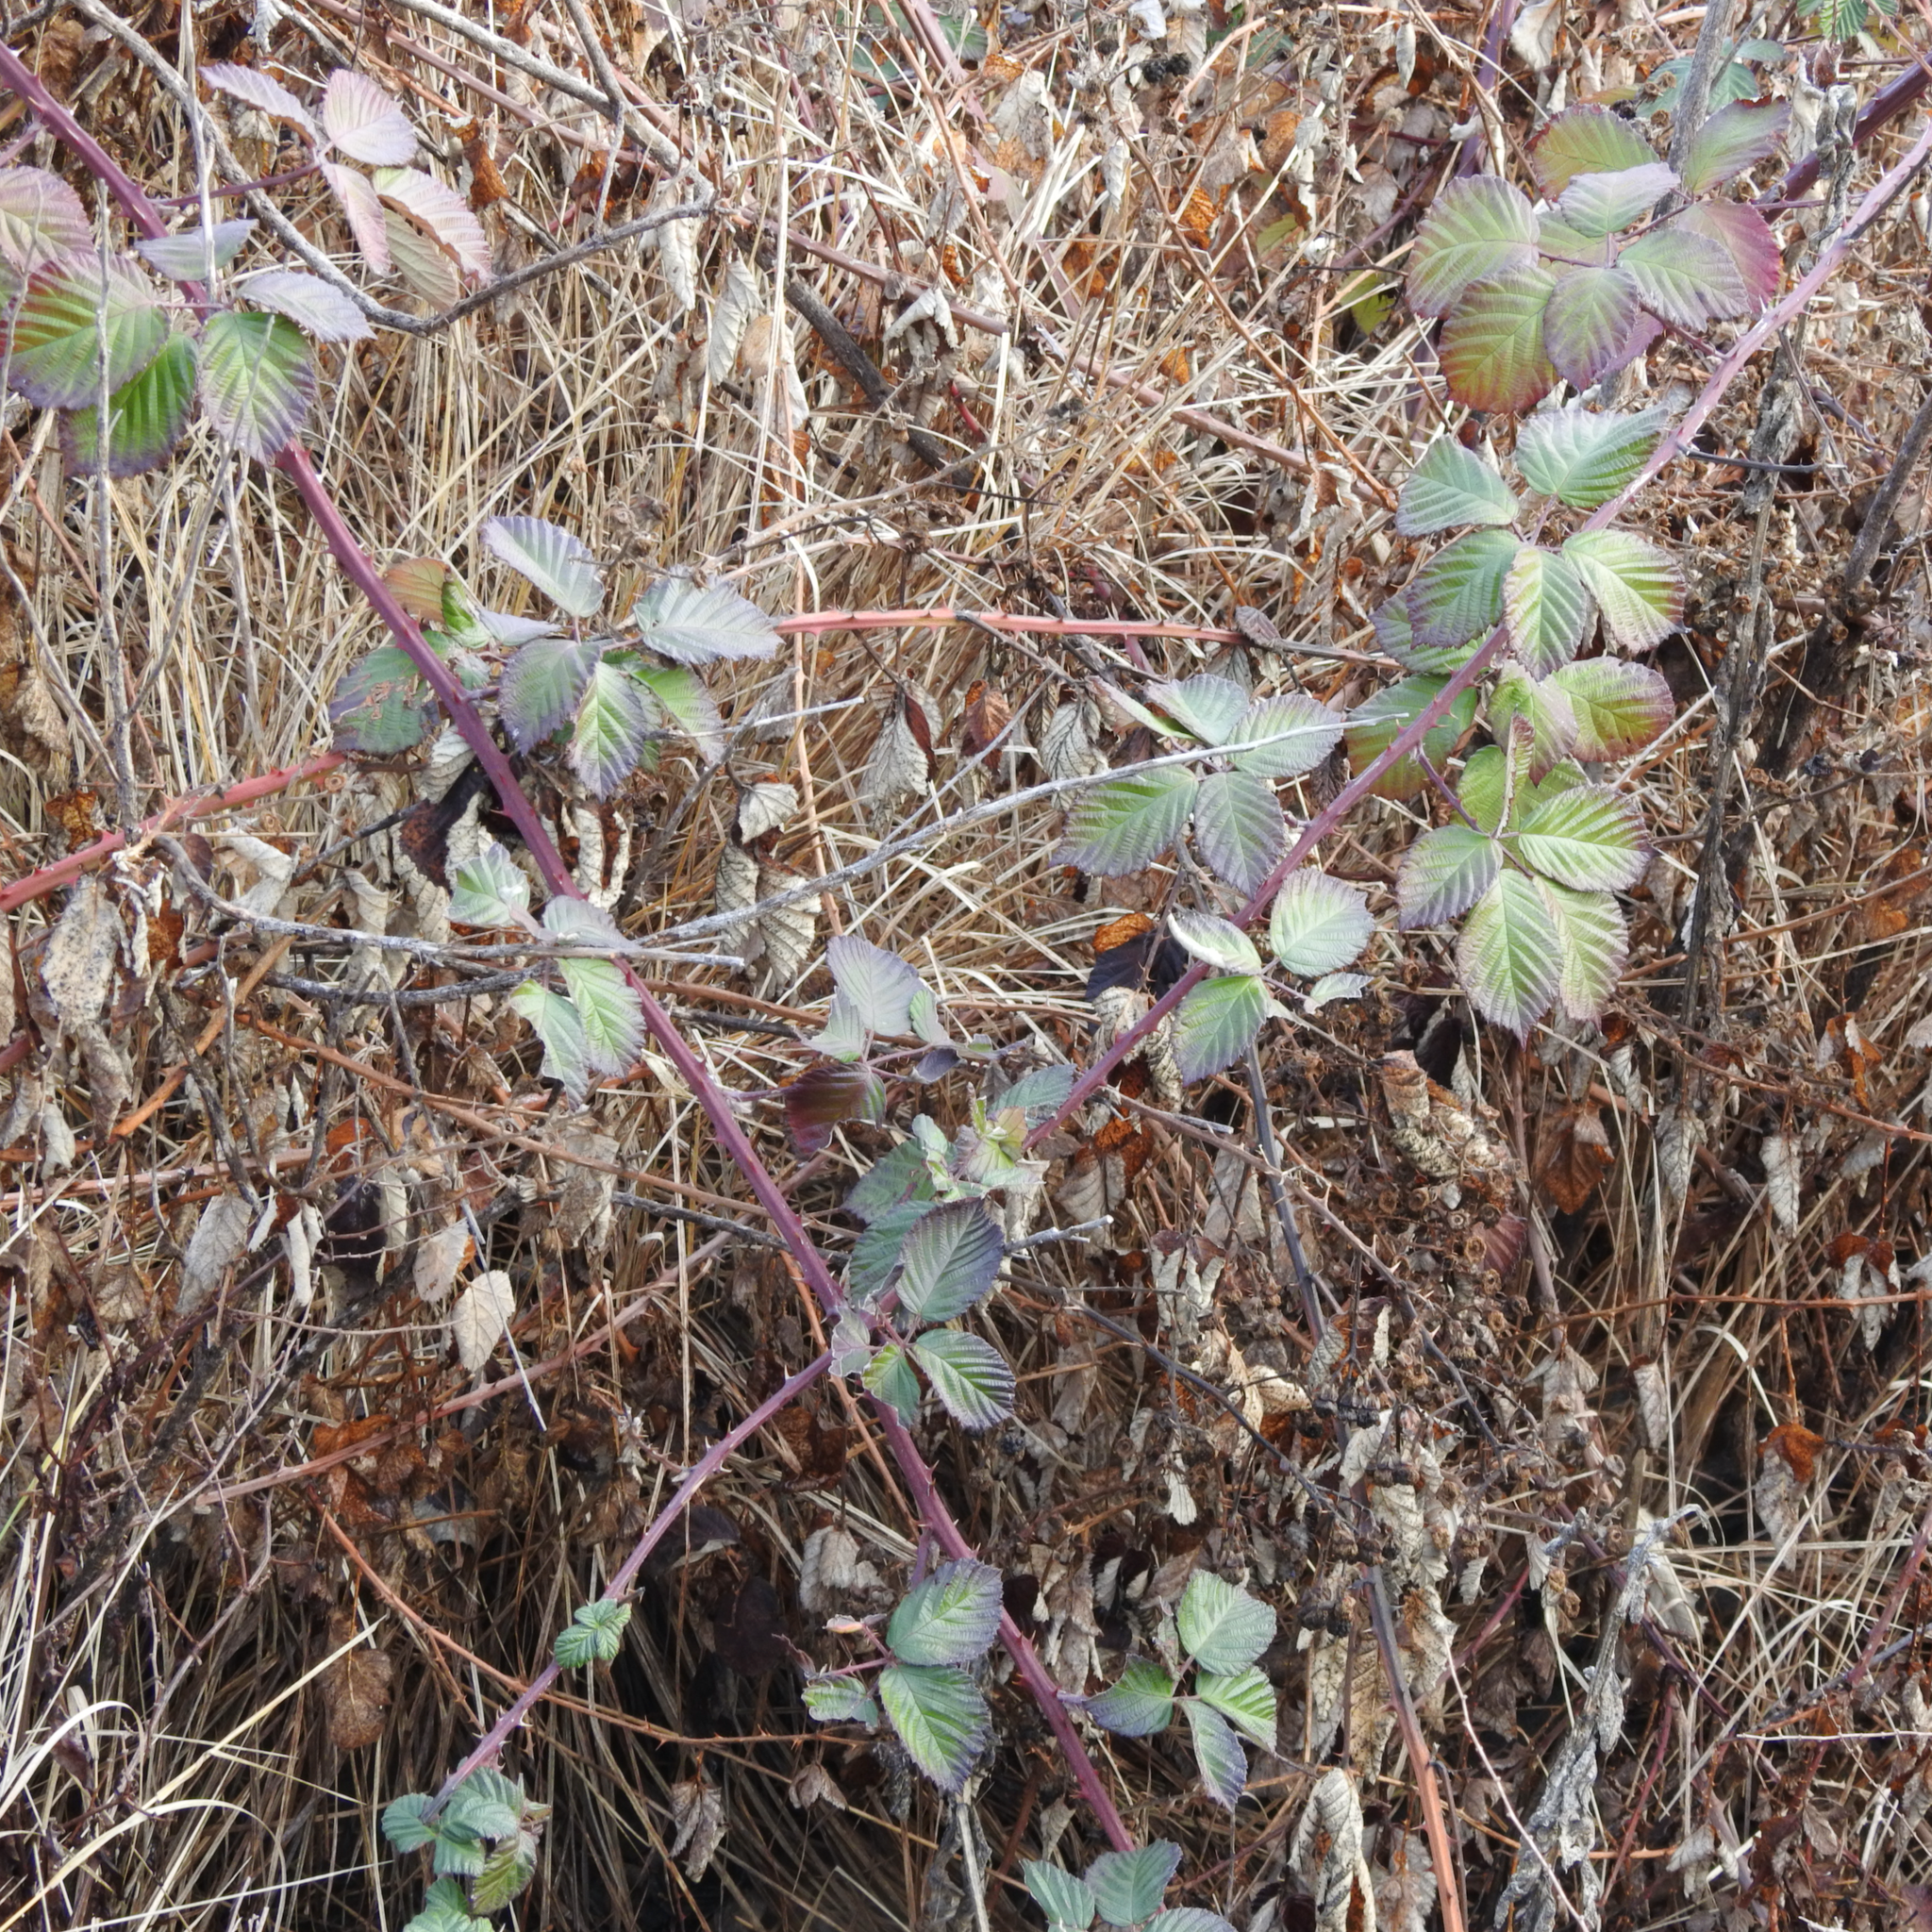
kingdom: Plantae
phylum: Tracheophyta
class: Magnoliopsida
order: Rosales
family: Rosaceae
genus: Rubus
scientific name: Rubus armeniacus
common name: Himalayan blackberry
